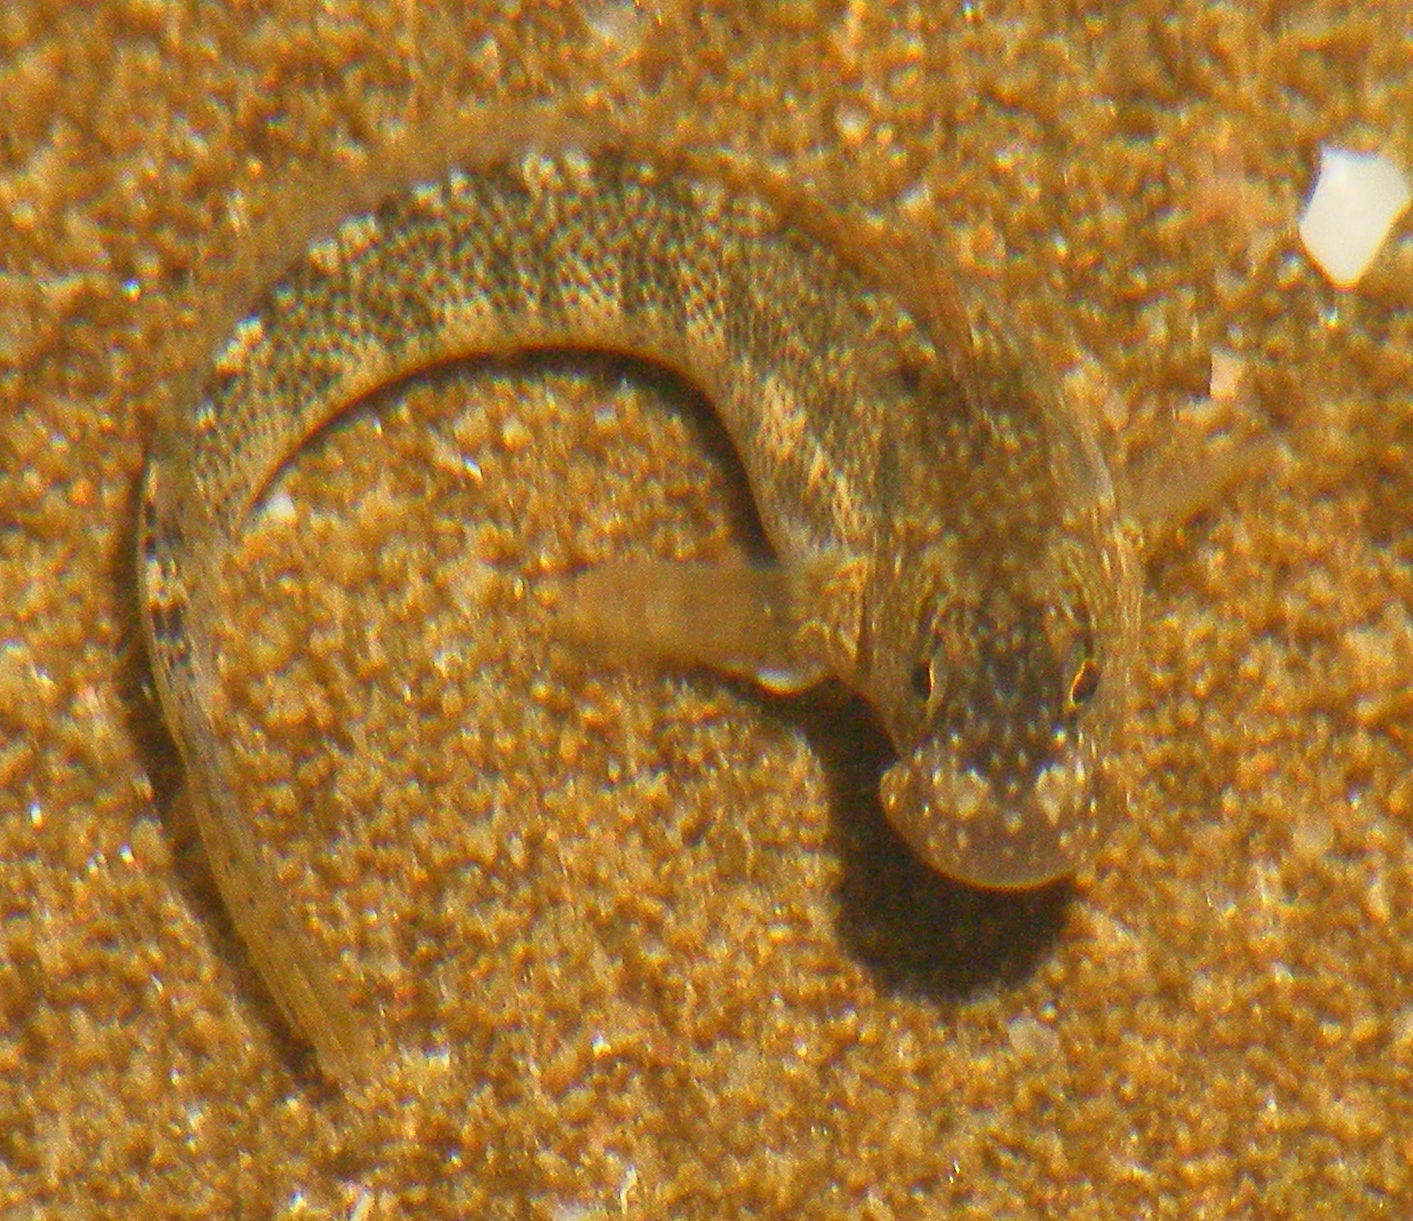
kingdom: Animalia
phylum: Chordata
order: Perciformes
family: Blenniidae
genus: Istiblennius
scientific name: Istiblennius bellus
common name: Beautiful rockskipper
